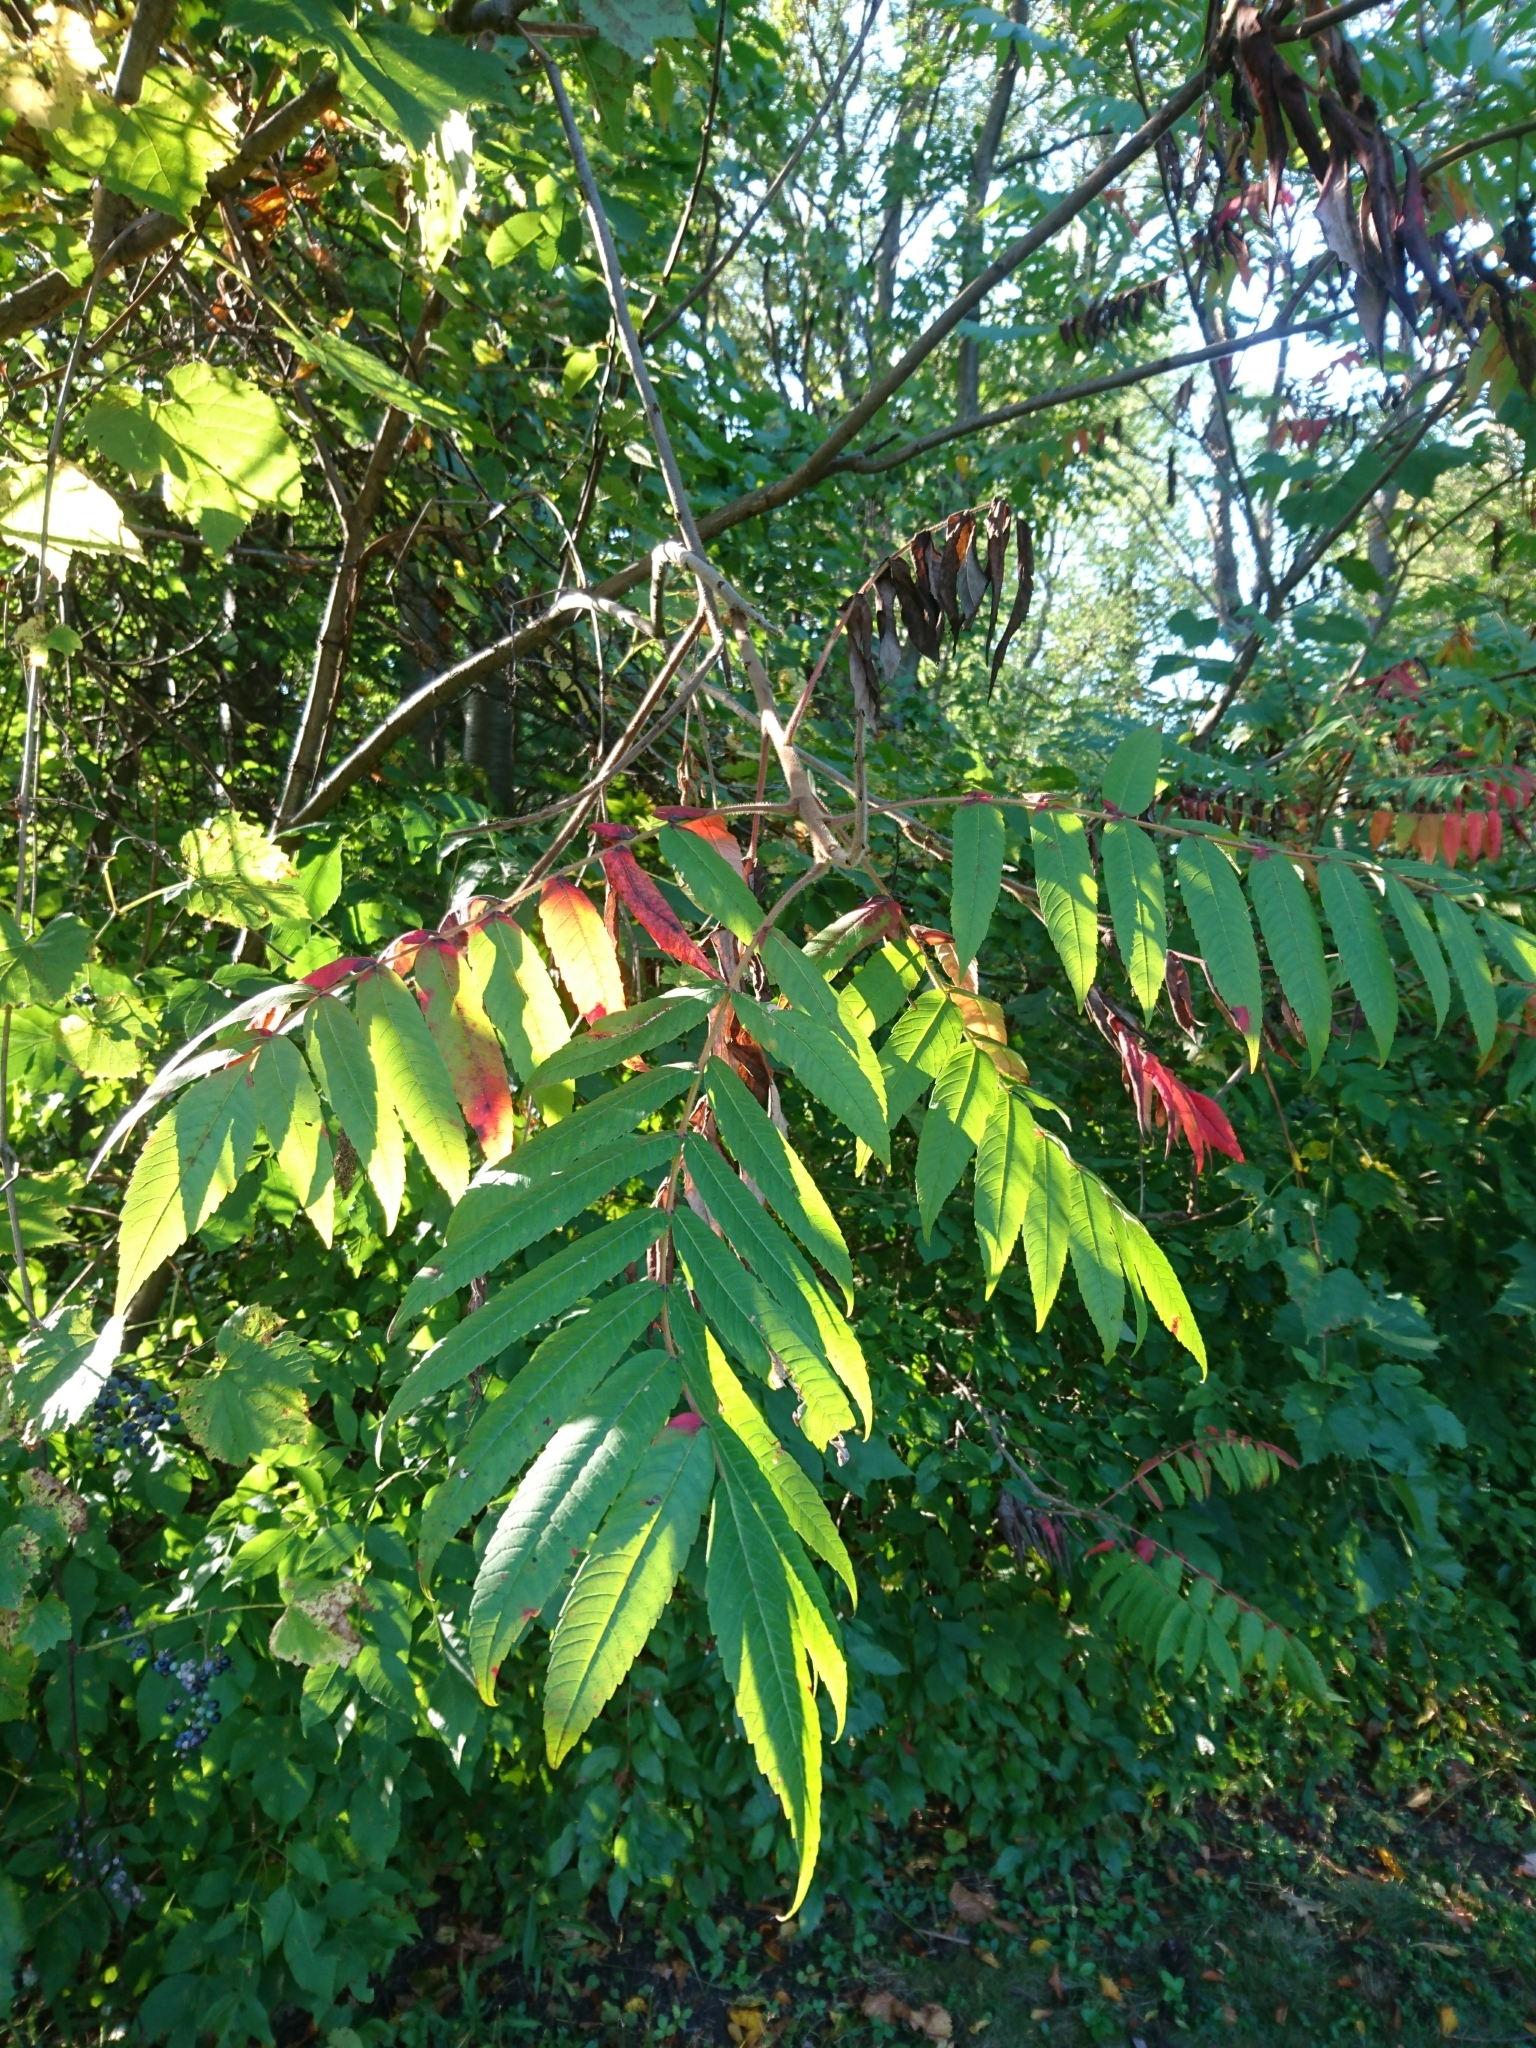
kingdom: Plantae
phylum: Tracheophyta
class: Magnoliopsida
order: Sapindales
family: Anacardiaceae
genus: Rhus
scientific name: Rhus typhina
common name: Staghorn sumac
